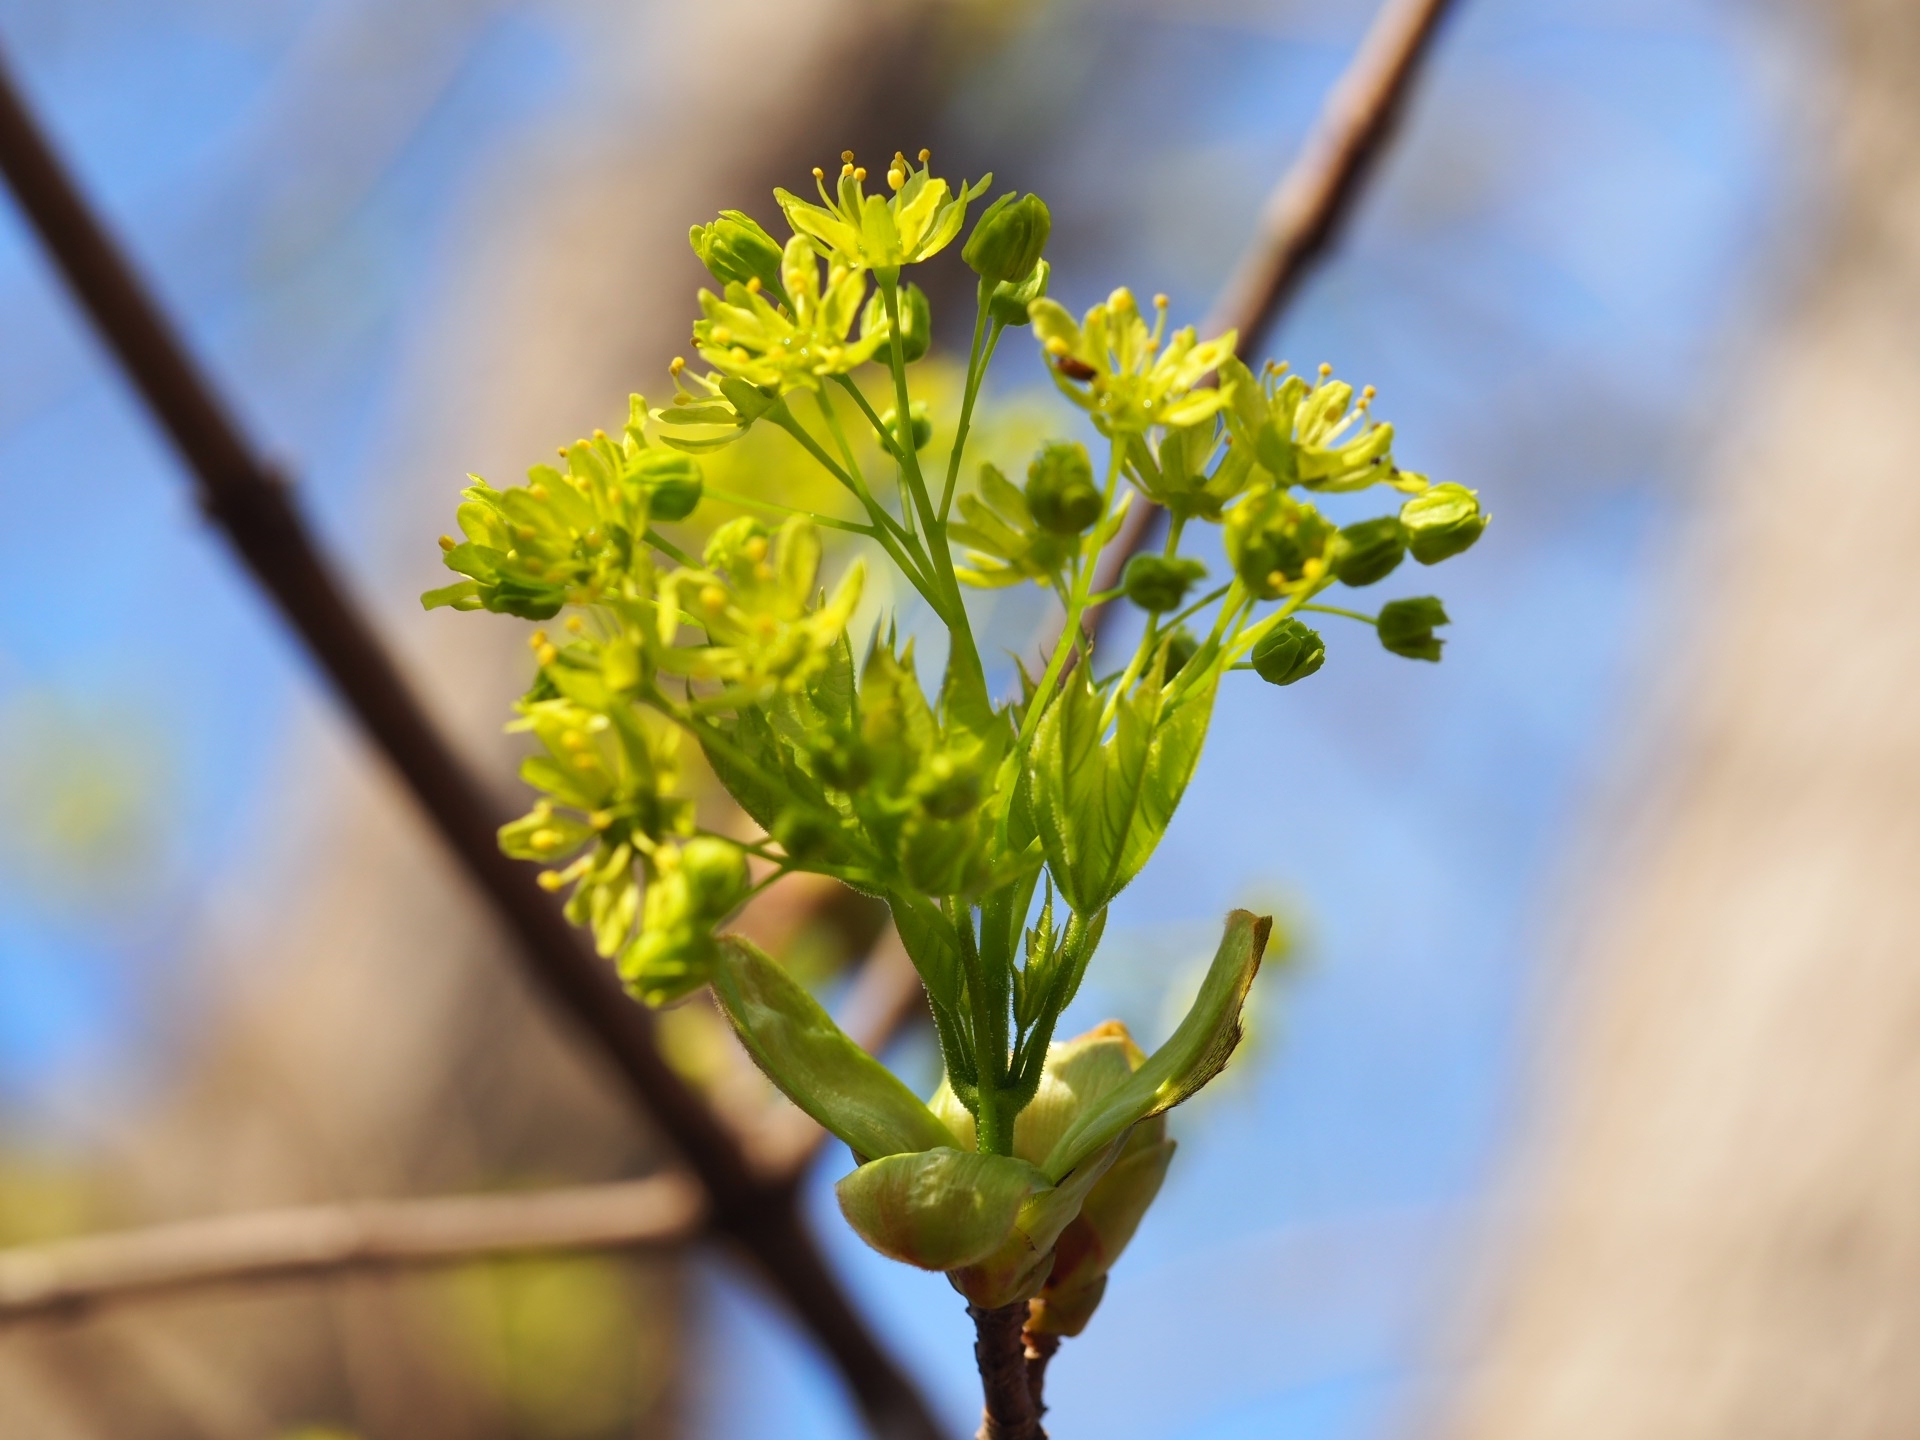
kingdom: Plantae
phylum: Tracheophyta
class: Magnoliopsida
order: Sapindales
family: Sapindaceae
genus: Acer
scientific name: Acer platanoides
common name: Norway maple
